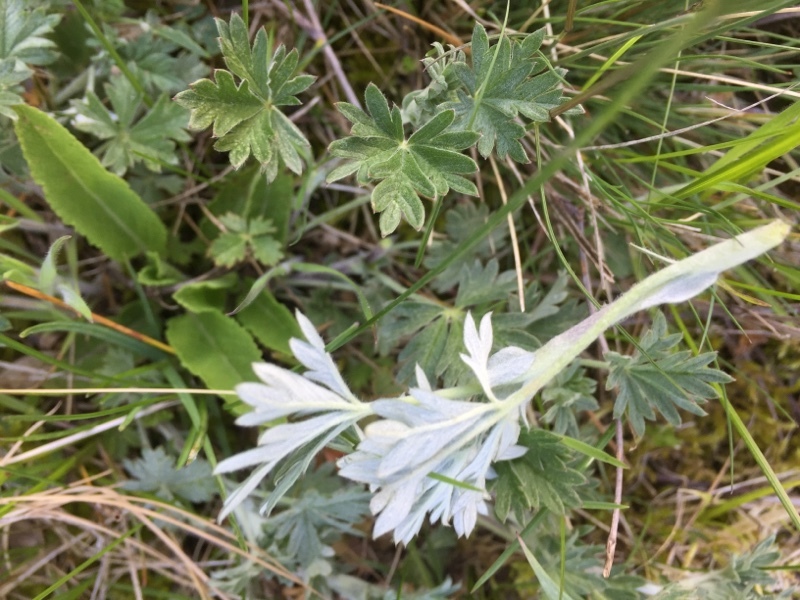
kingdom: Plantae
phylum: Tracheophyta
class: Magnoliopsida
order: Rosales
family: Rosaceae
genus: Potentilla
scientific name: Potentilla argentea
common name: Hoary cinquefoil
